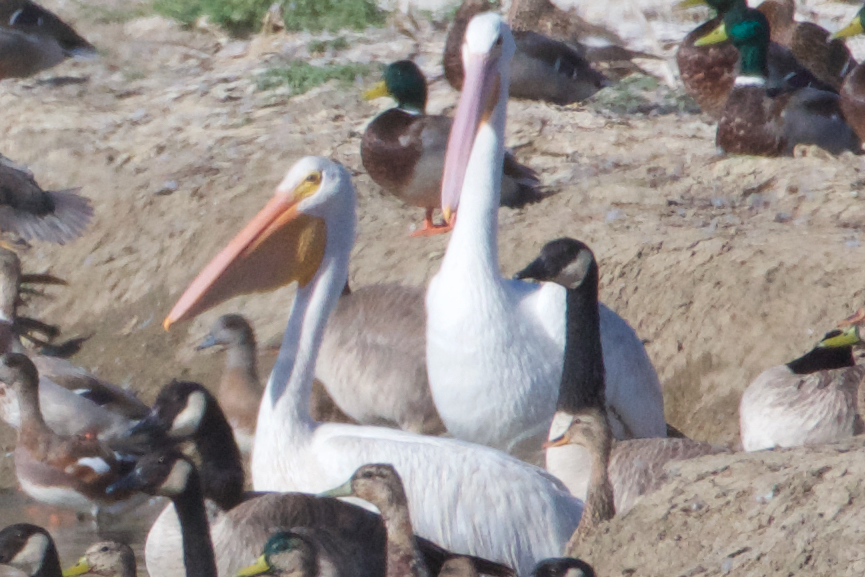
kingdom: Animalia
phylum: Chordata
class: Aves
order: Pelecaniformes
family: Pelecanidae
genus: Pelecanus
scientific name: Pelecanus erythrorhynchos
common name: American white pelican
